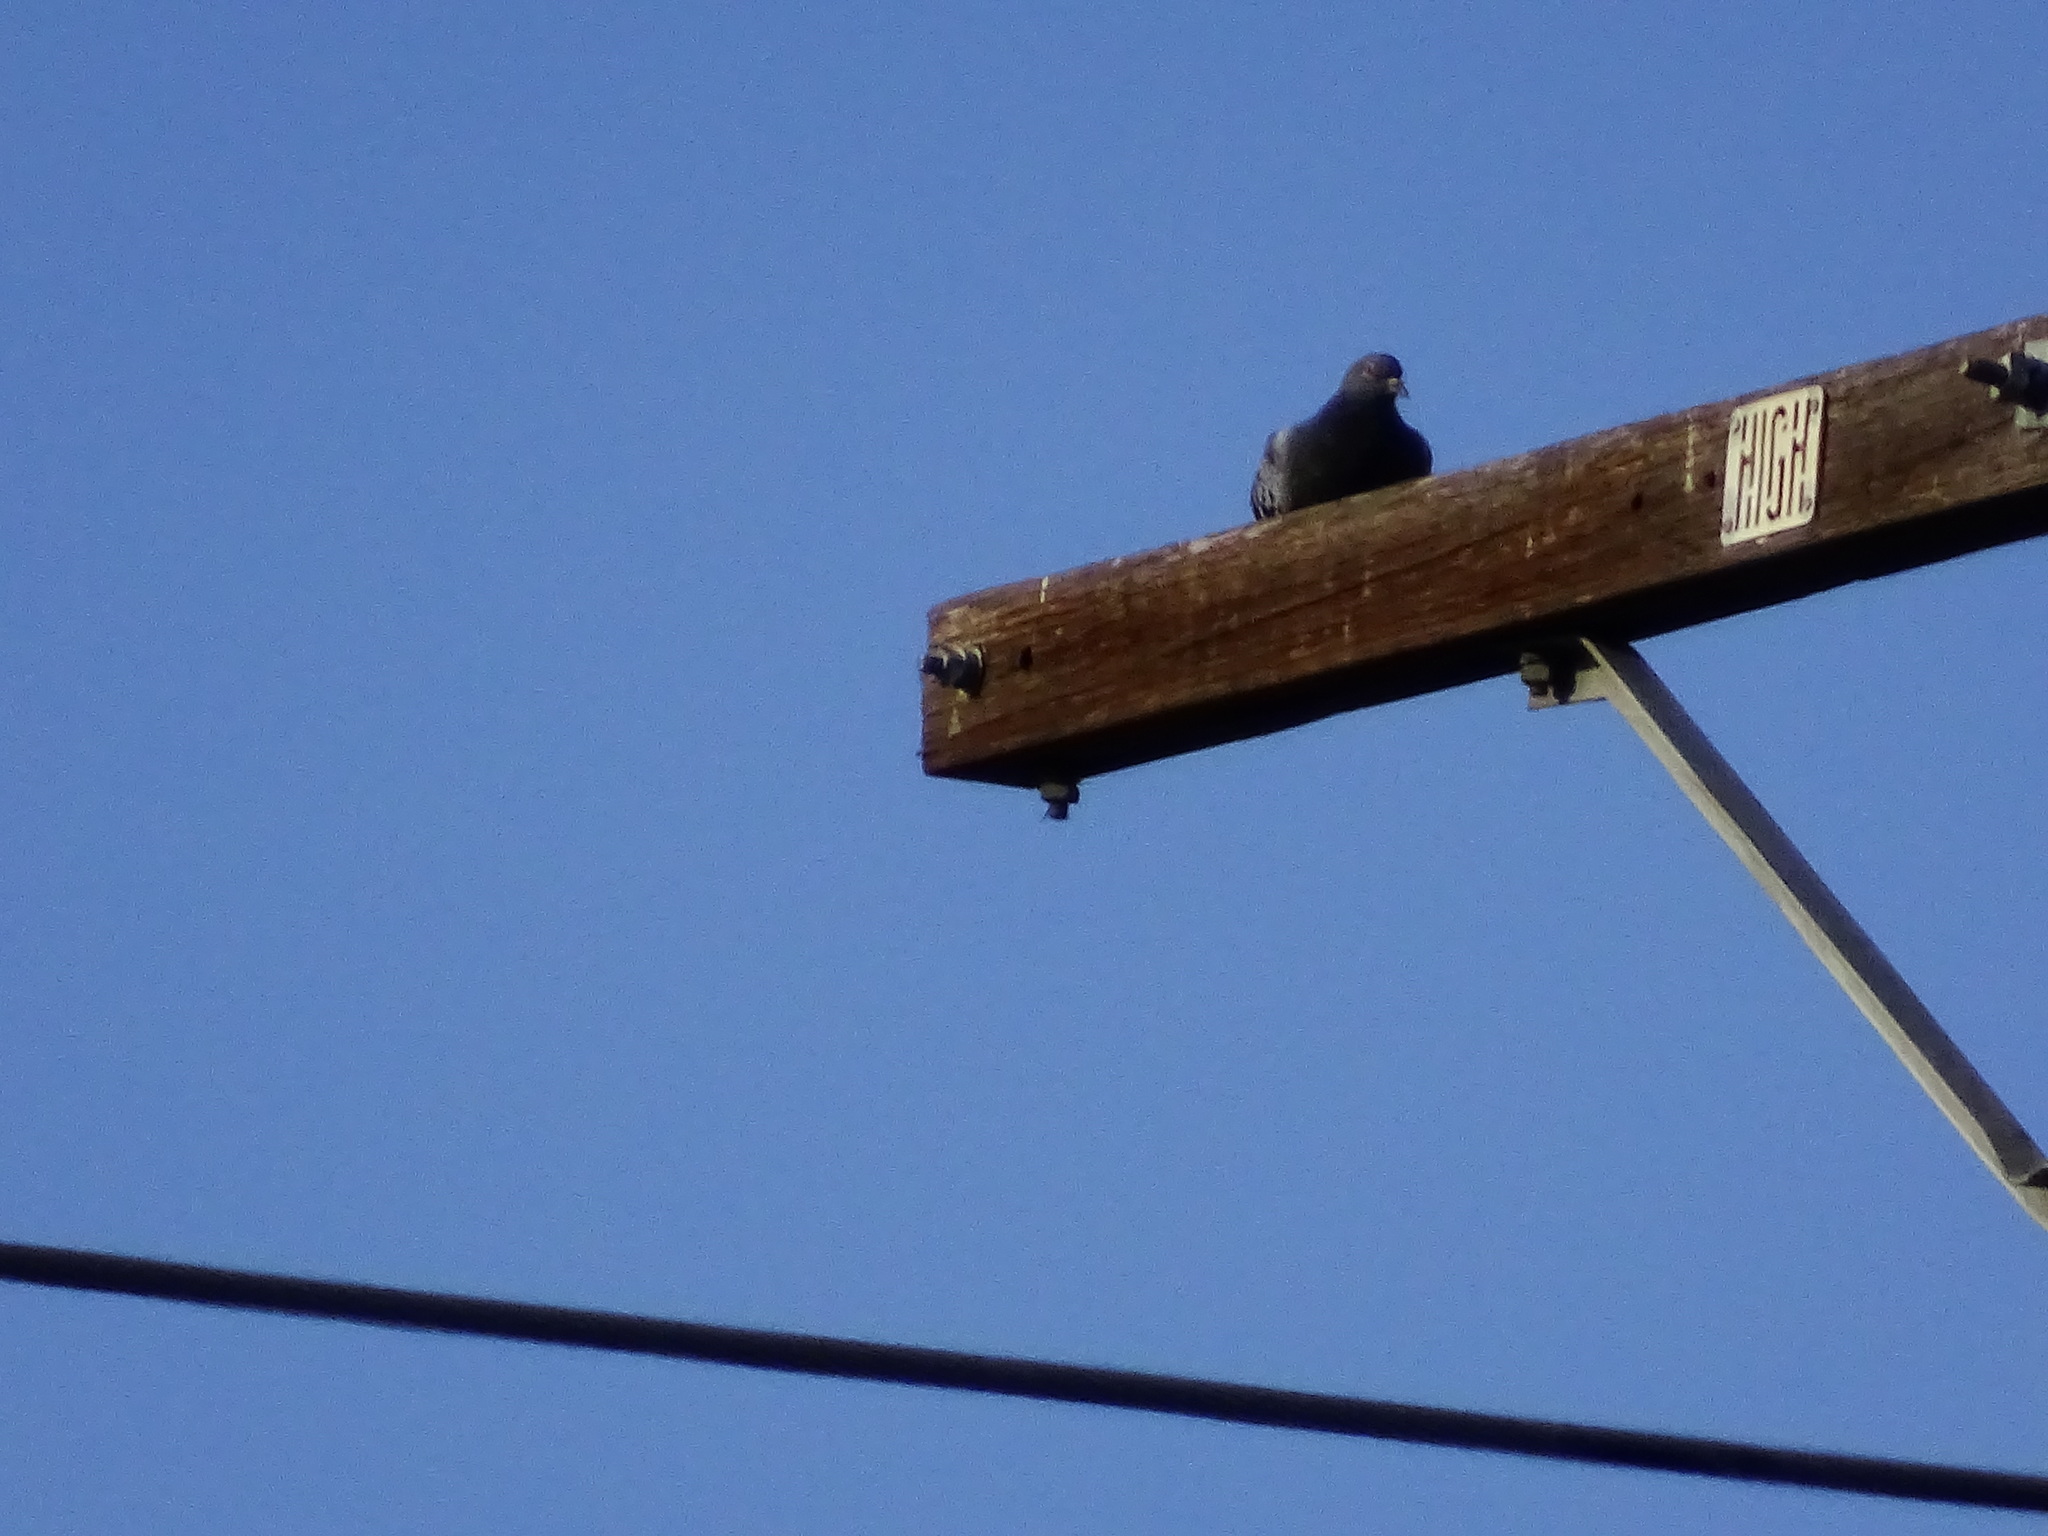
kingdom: Animalia
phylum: Chordata
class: Aves
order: Columbiformes
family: Columbidae
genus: Columba
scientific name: Columba livia
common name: Rock pigeon
